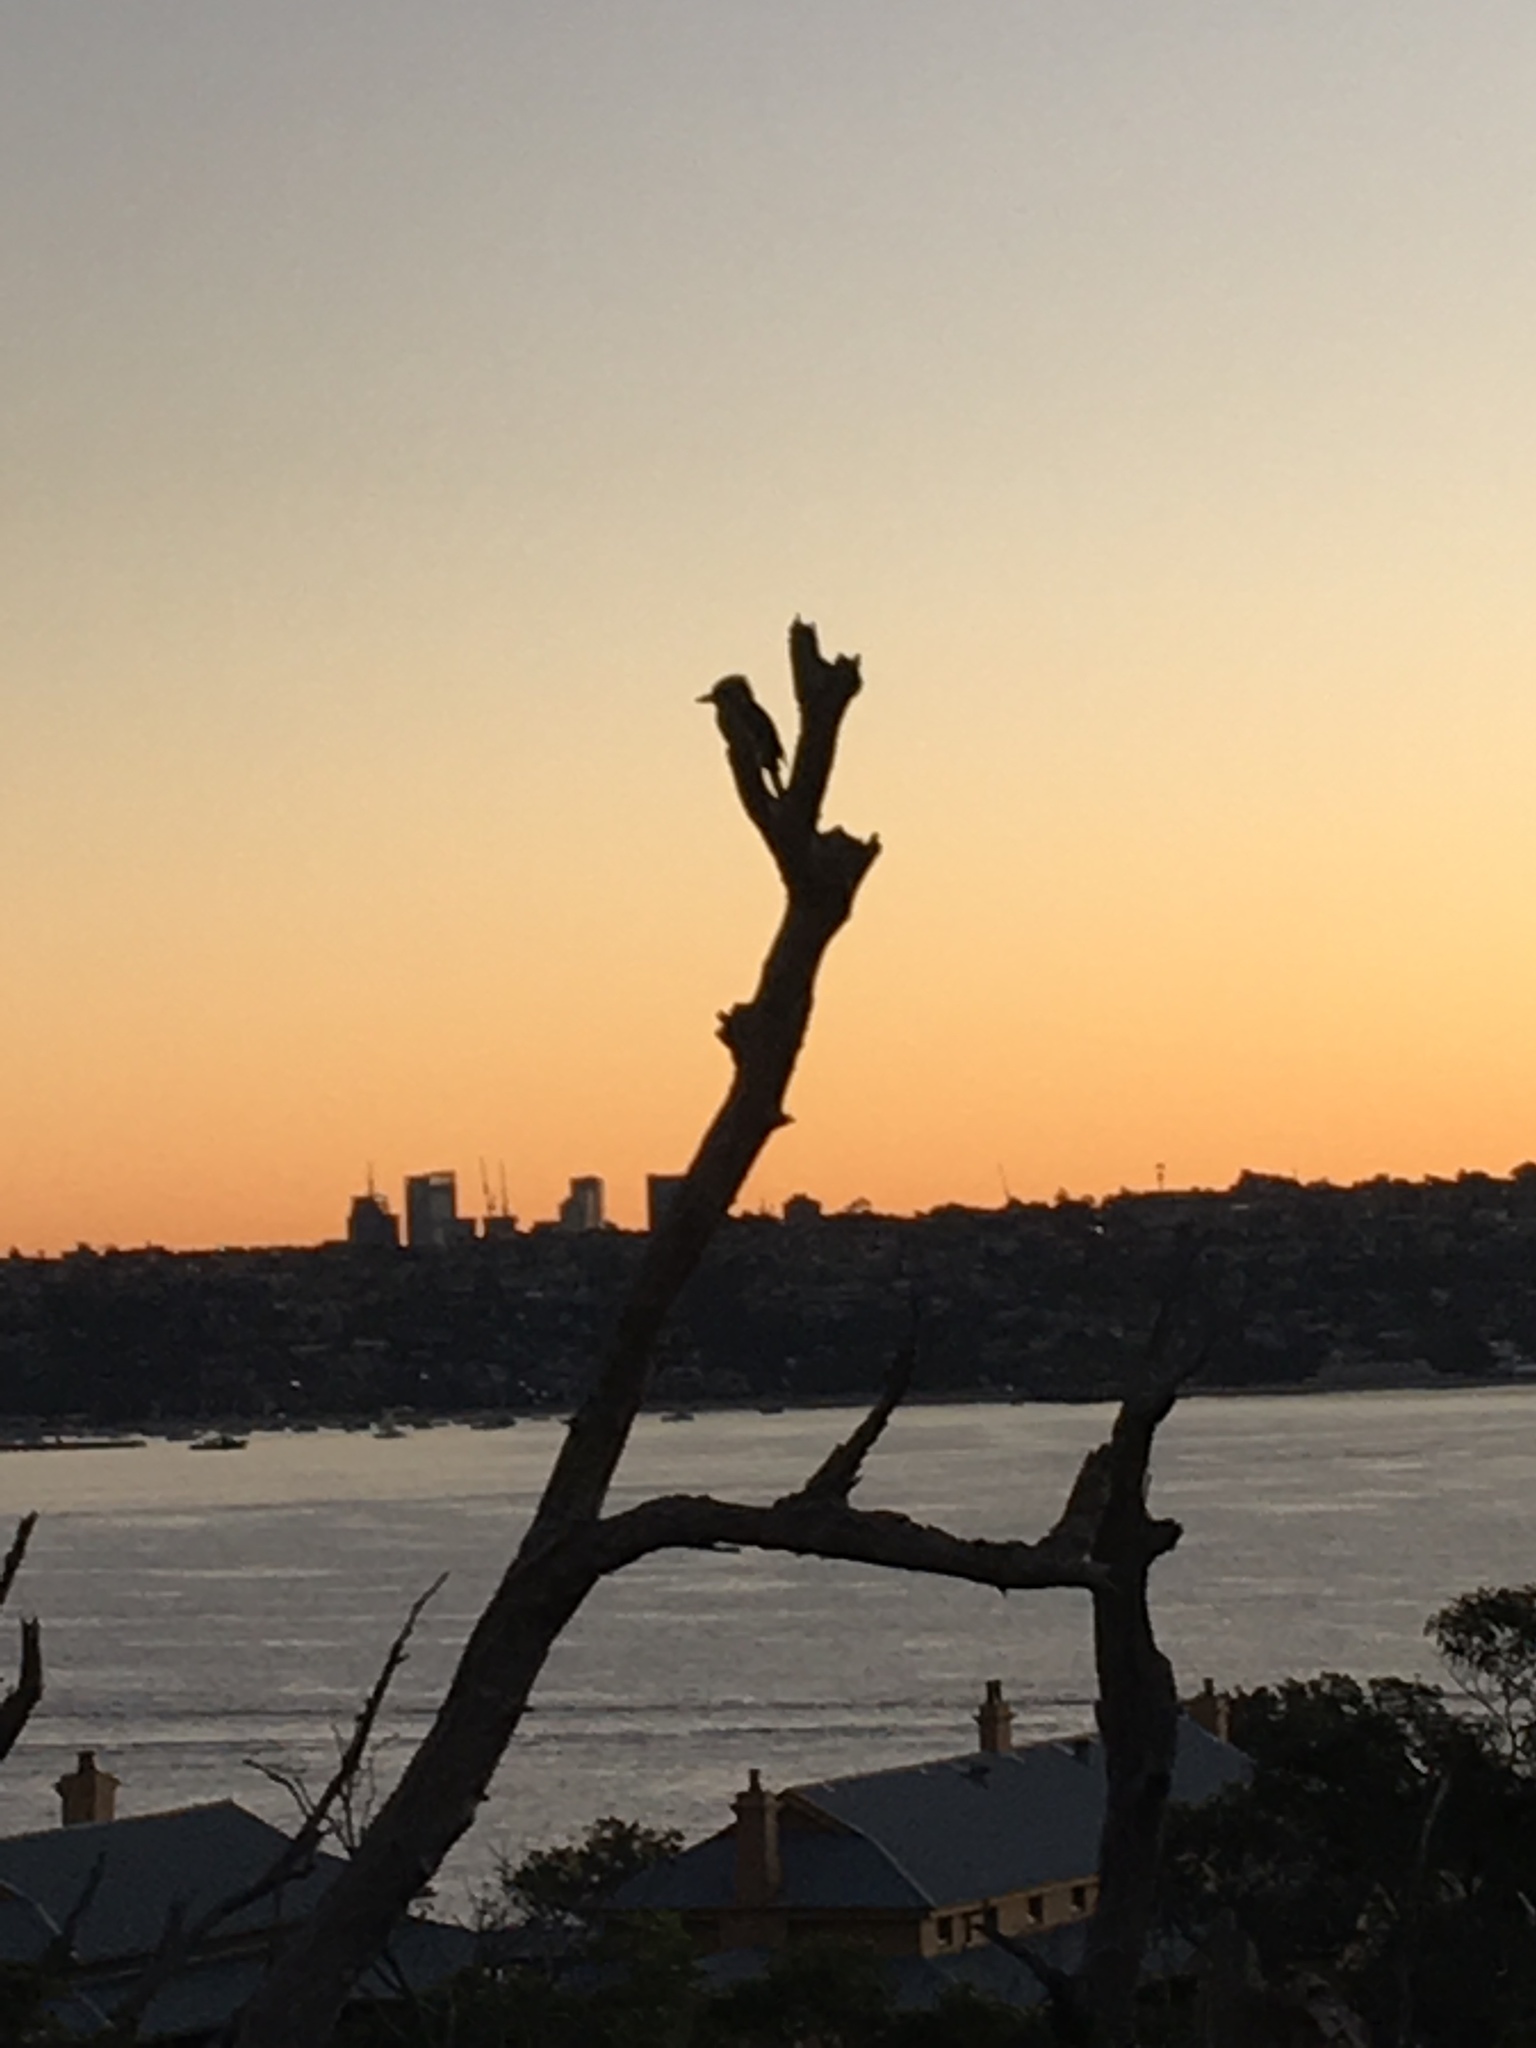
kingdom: Animalia
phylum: Chordata
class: Aves
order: Coraciiformes
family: Alcedinidae
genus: Dacelo
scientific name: Dacelo novaeguineae
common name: Laughing kookaburra
